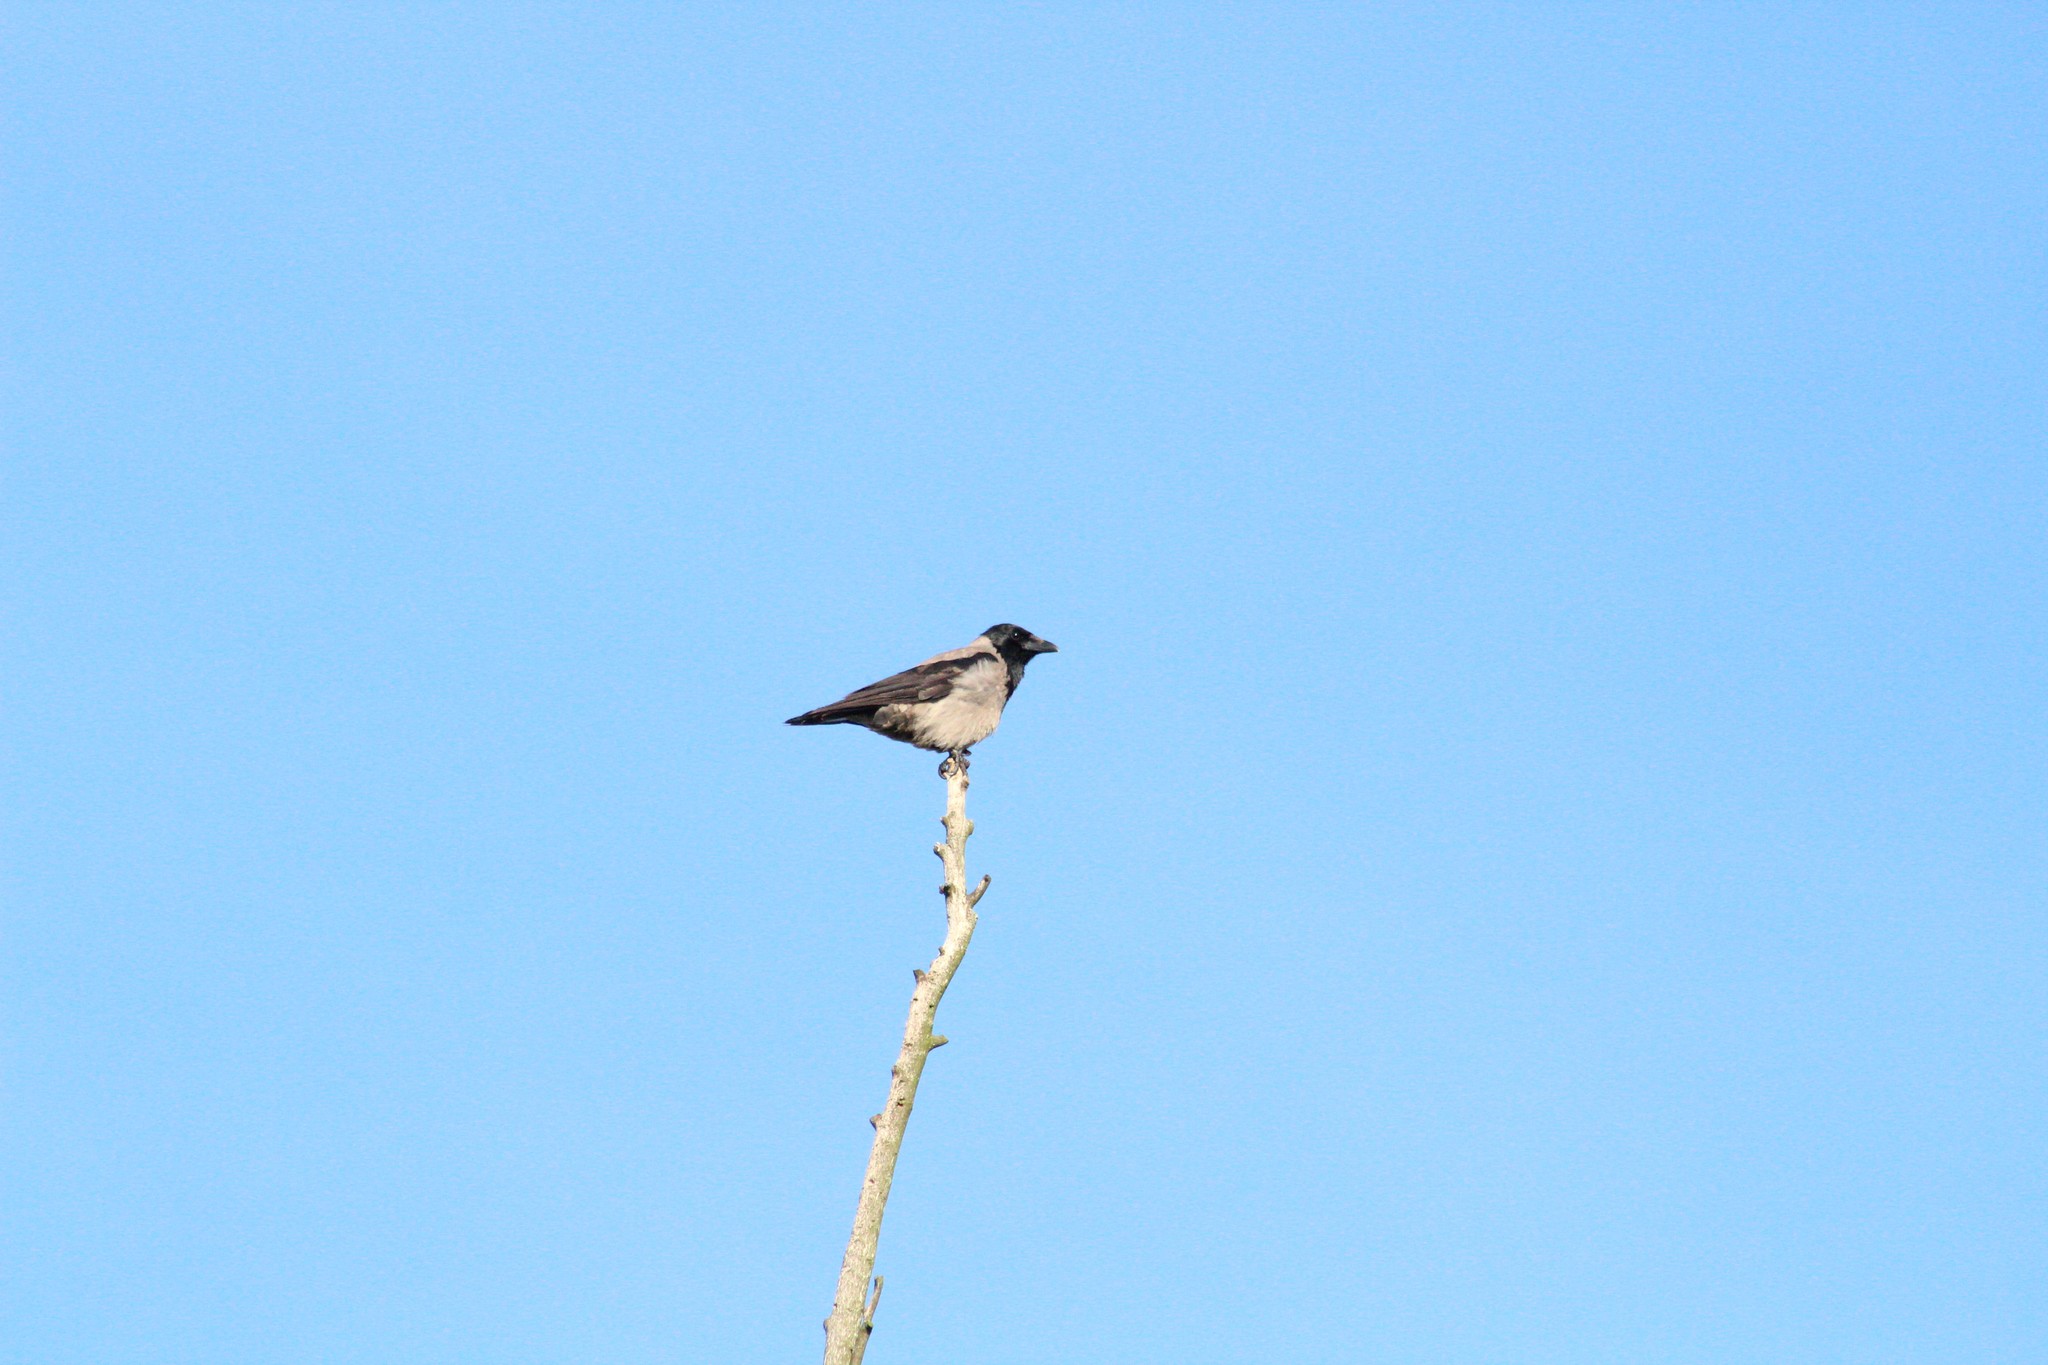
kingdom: Animalia
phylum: Chordata
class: Aves
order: Passeriformes
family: Corvidae
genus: Corvus
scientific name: Corvus cornix
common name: Hooded crow
